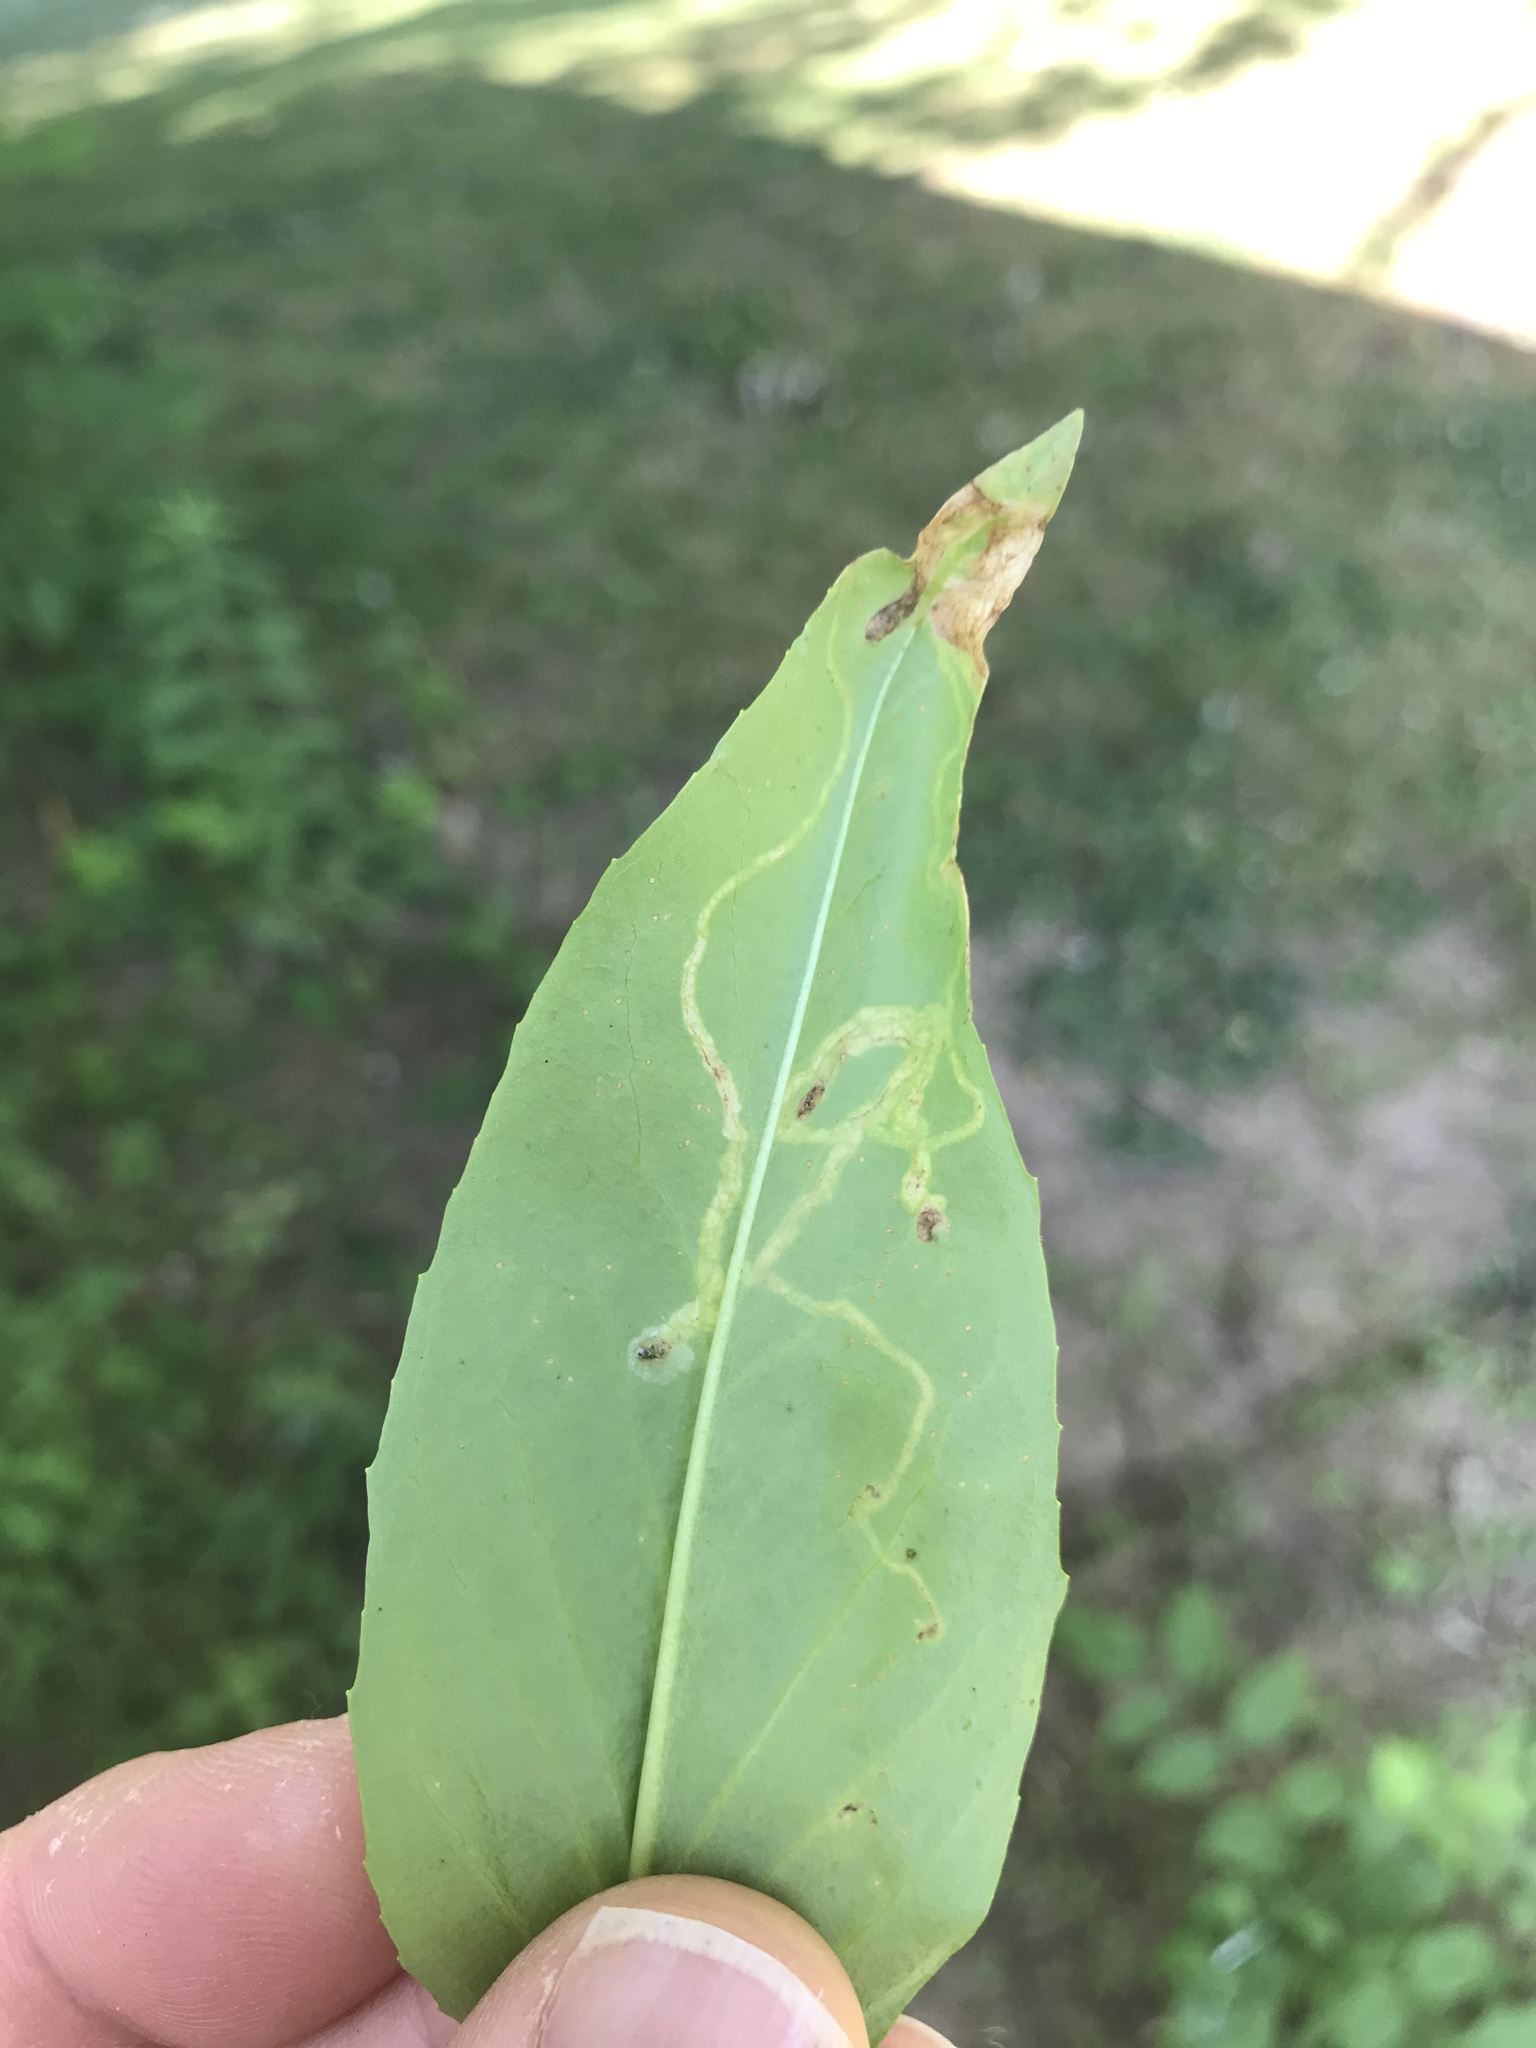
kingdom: Animalia
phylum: Arthropoda
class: Insecta
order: Diptera
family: Agromyzidae
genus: Phytomyza
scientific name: Phytomyza penstemonis
